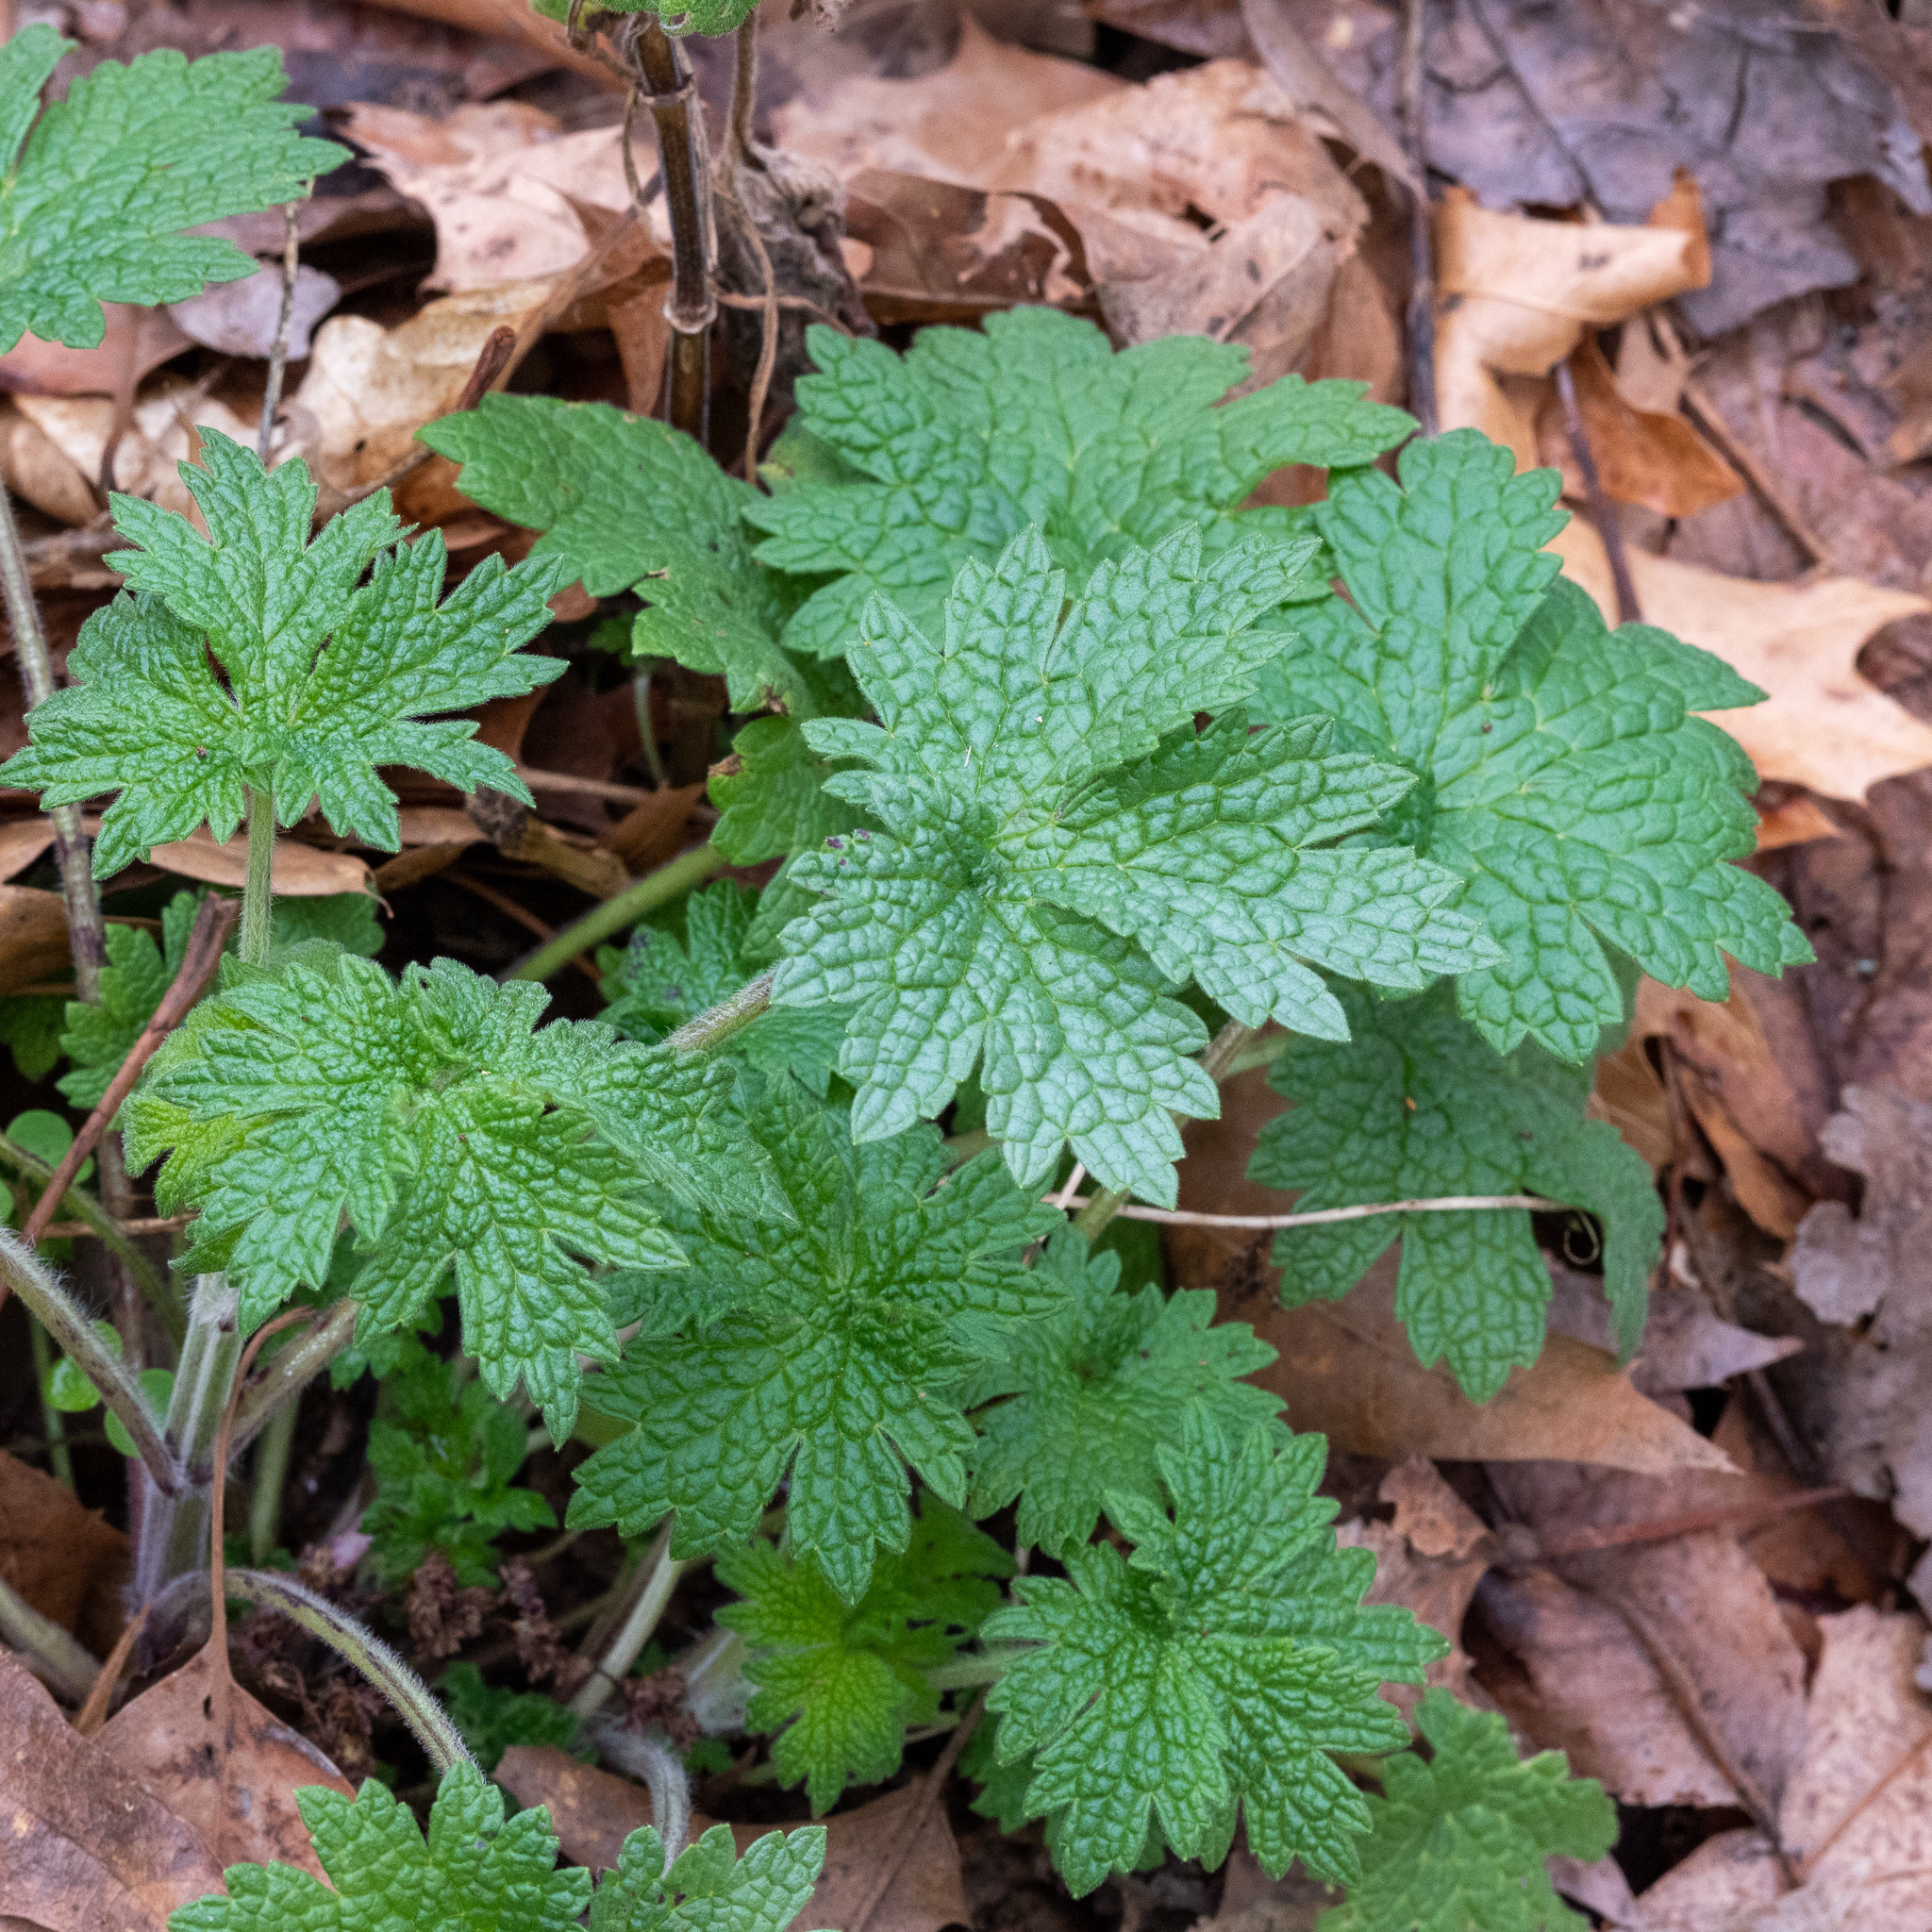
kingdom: Plantae
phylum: Tracheophyta
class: Magnoliopsida
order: Lamiales
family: Lamiaceae
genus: Leonurus
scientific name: Leonurus cardiaca
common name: Motherwort
